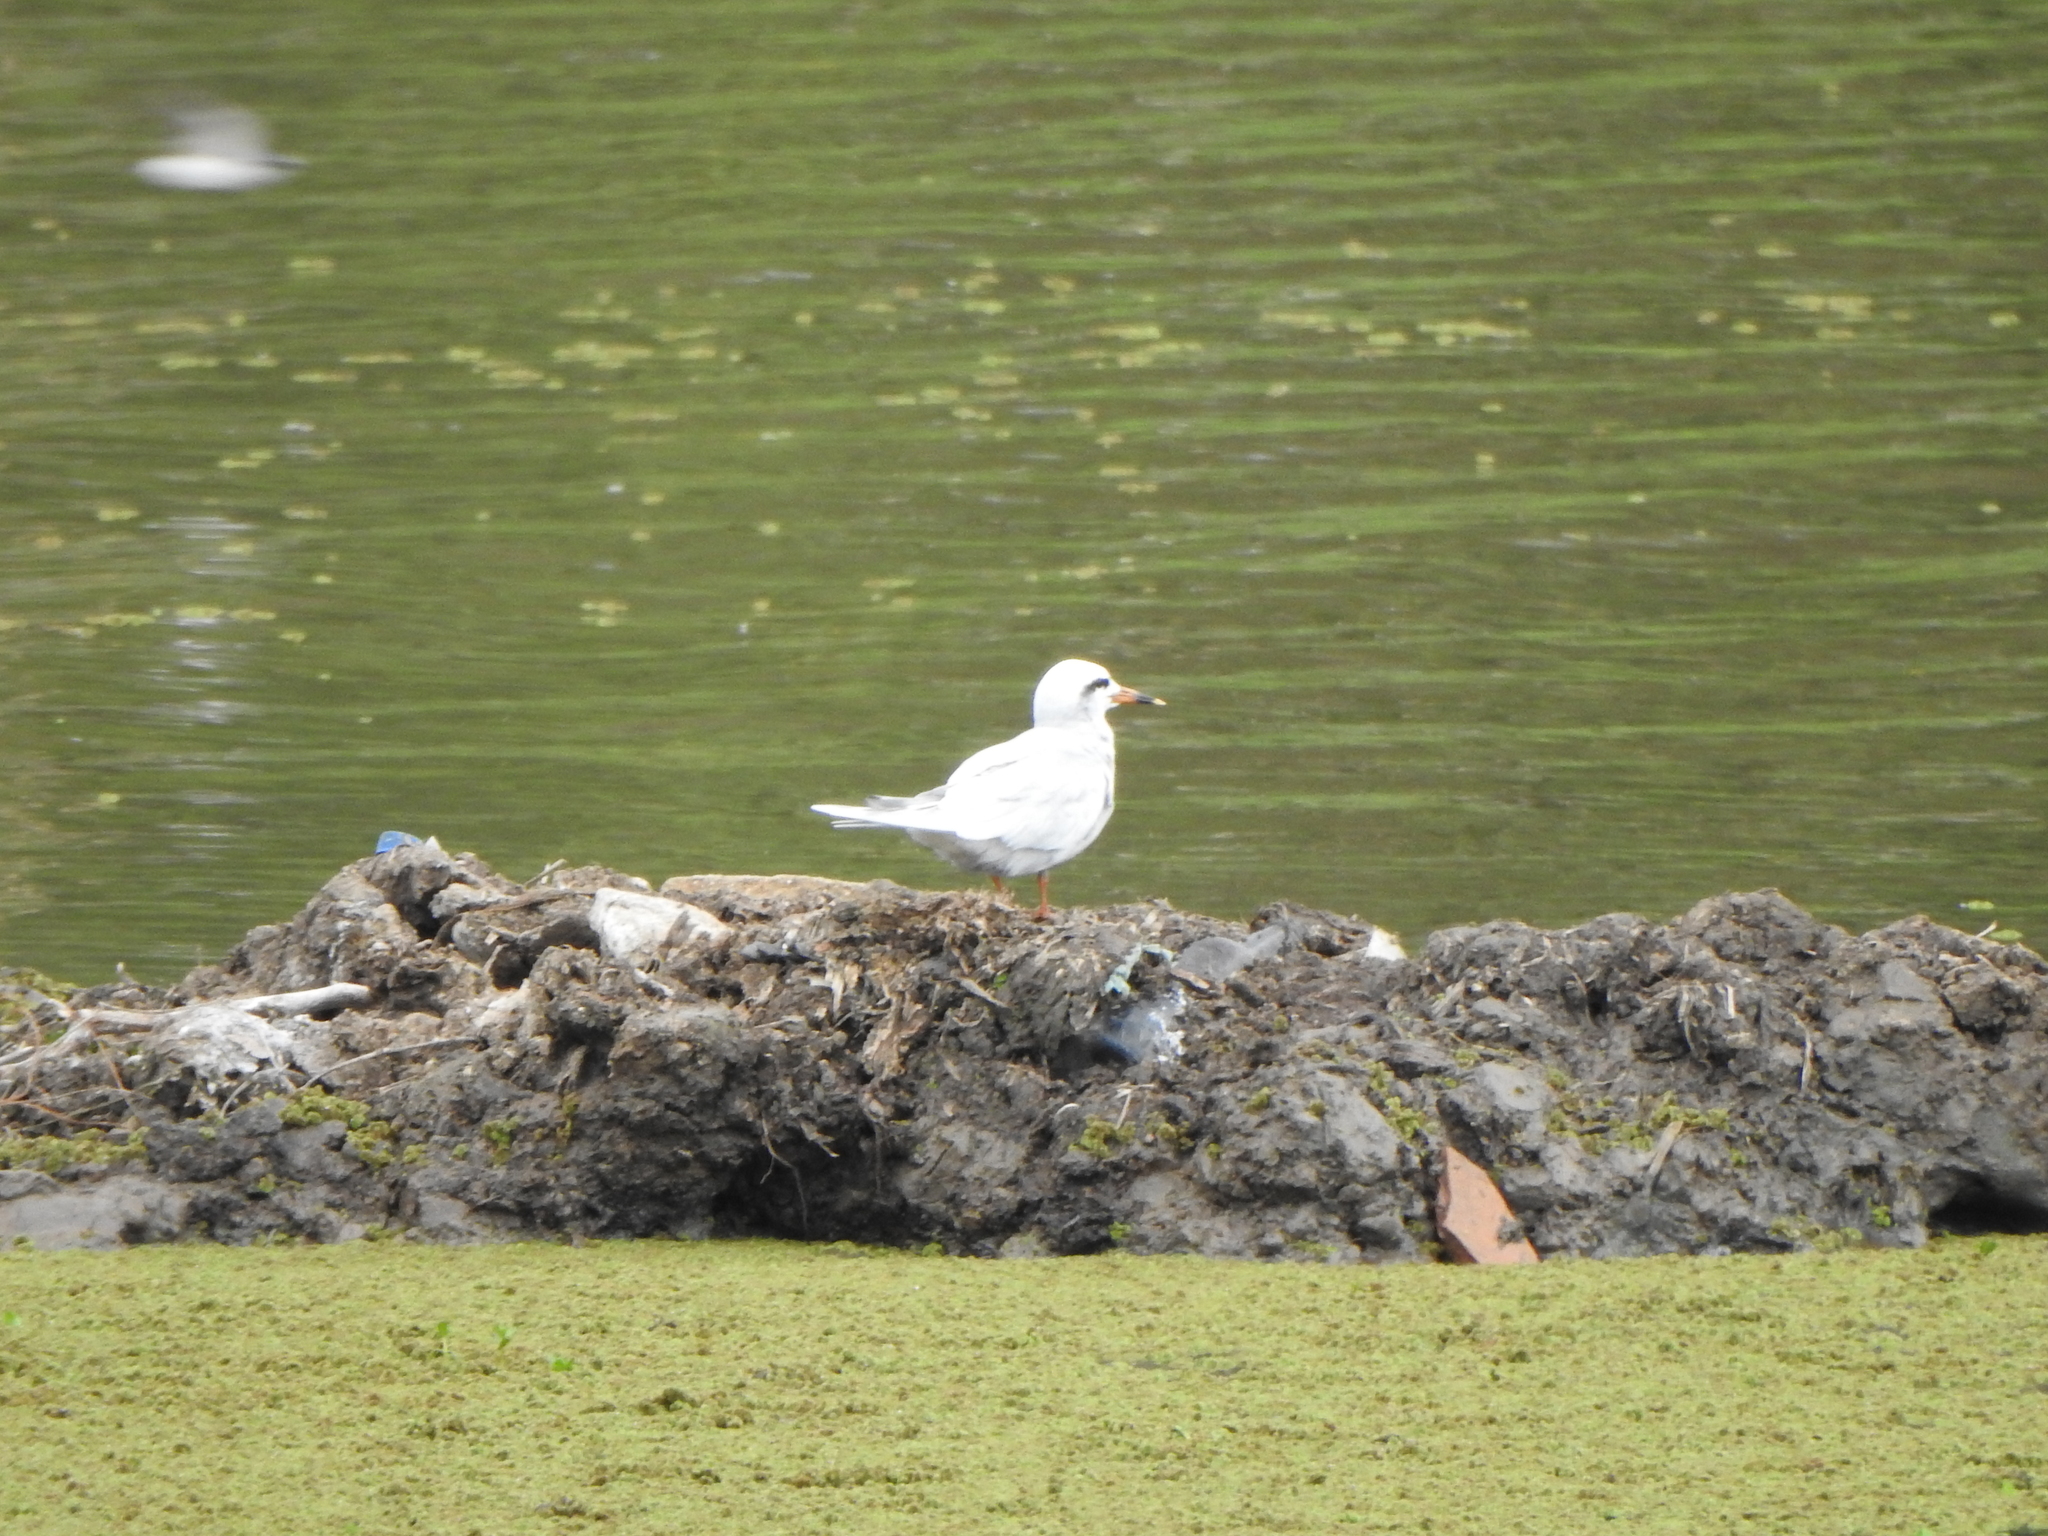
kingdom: Animalia
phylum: Chordata
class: Aves
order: Charadriiformes
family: Laridae
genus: Sterna
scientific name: Sterna trudeaui
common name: Snowy-crowned tern
